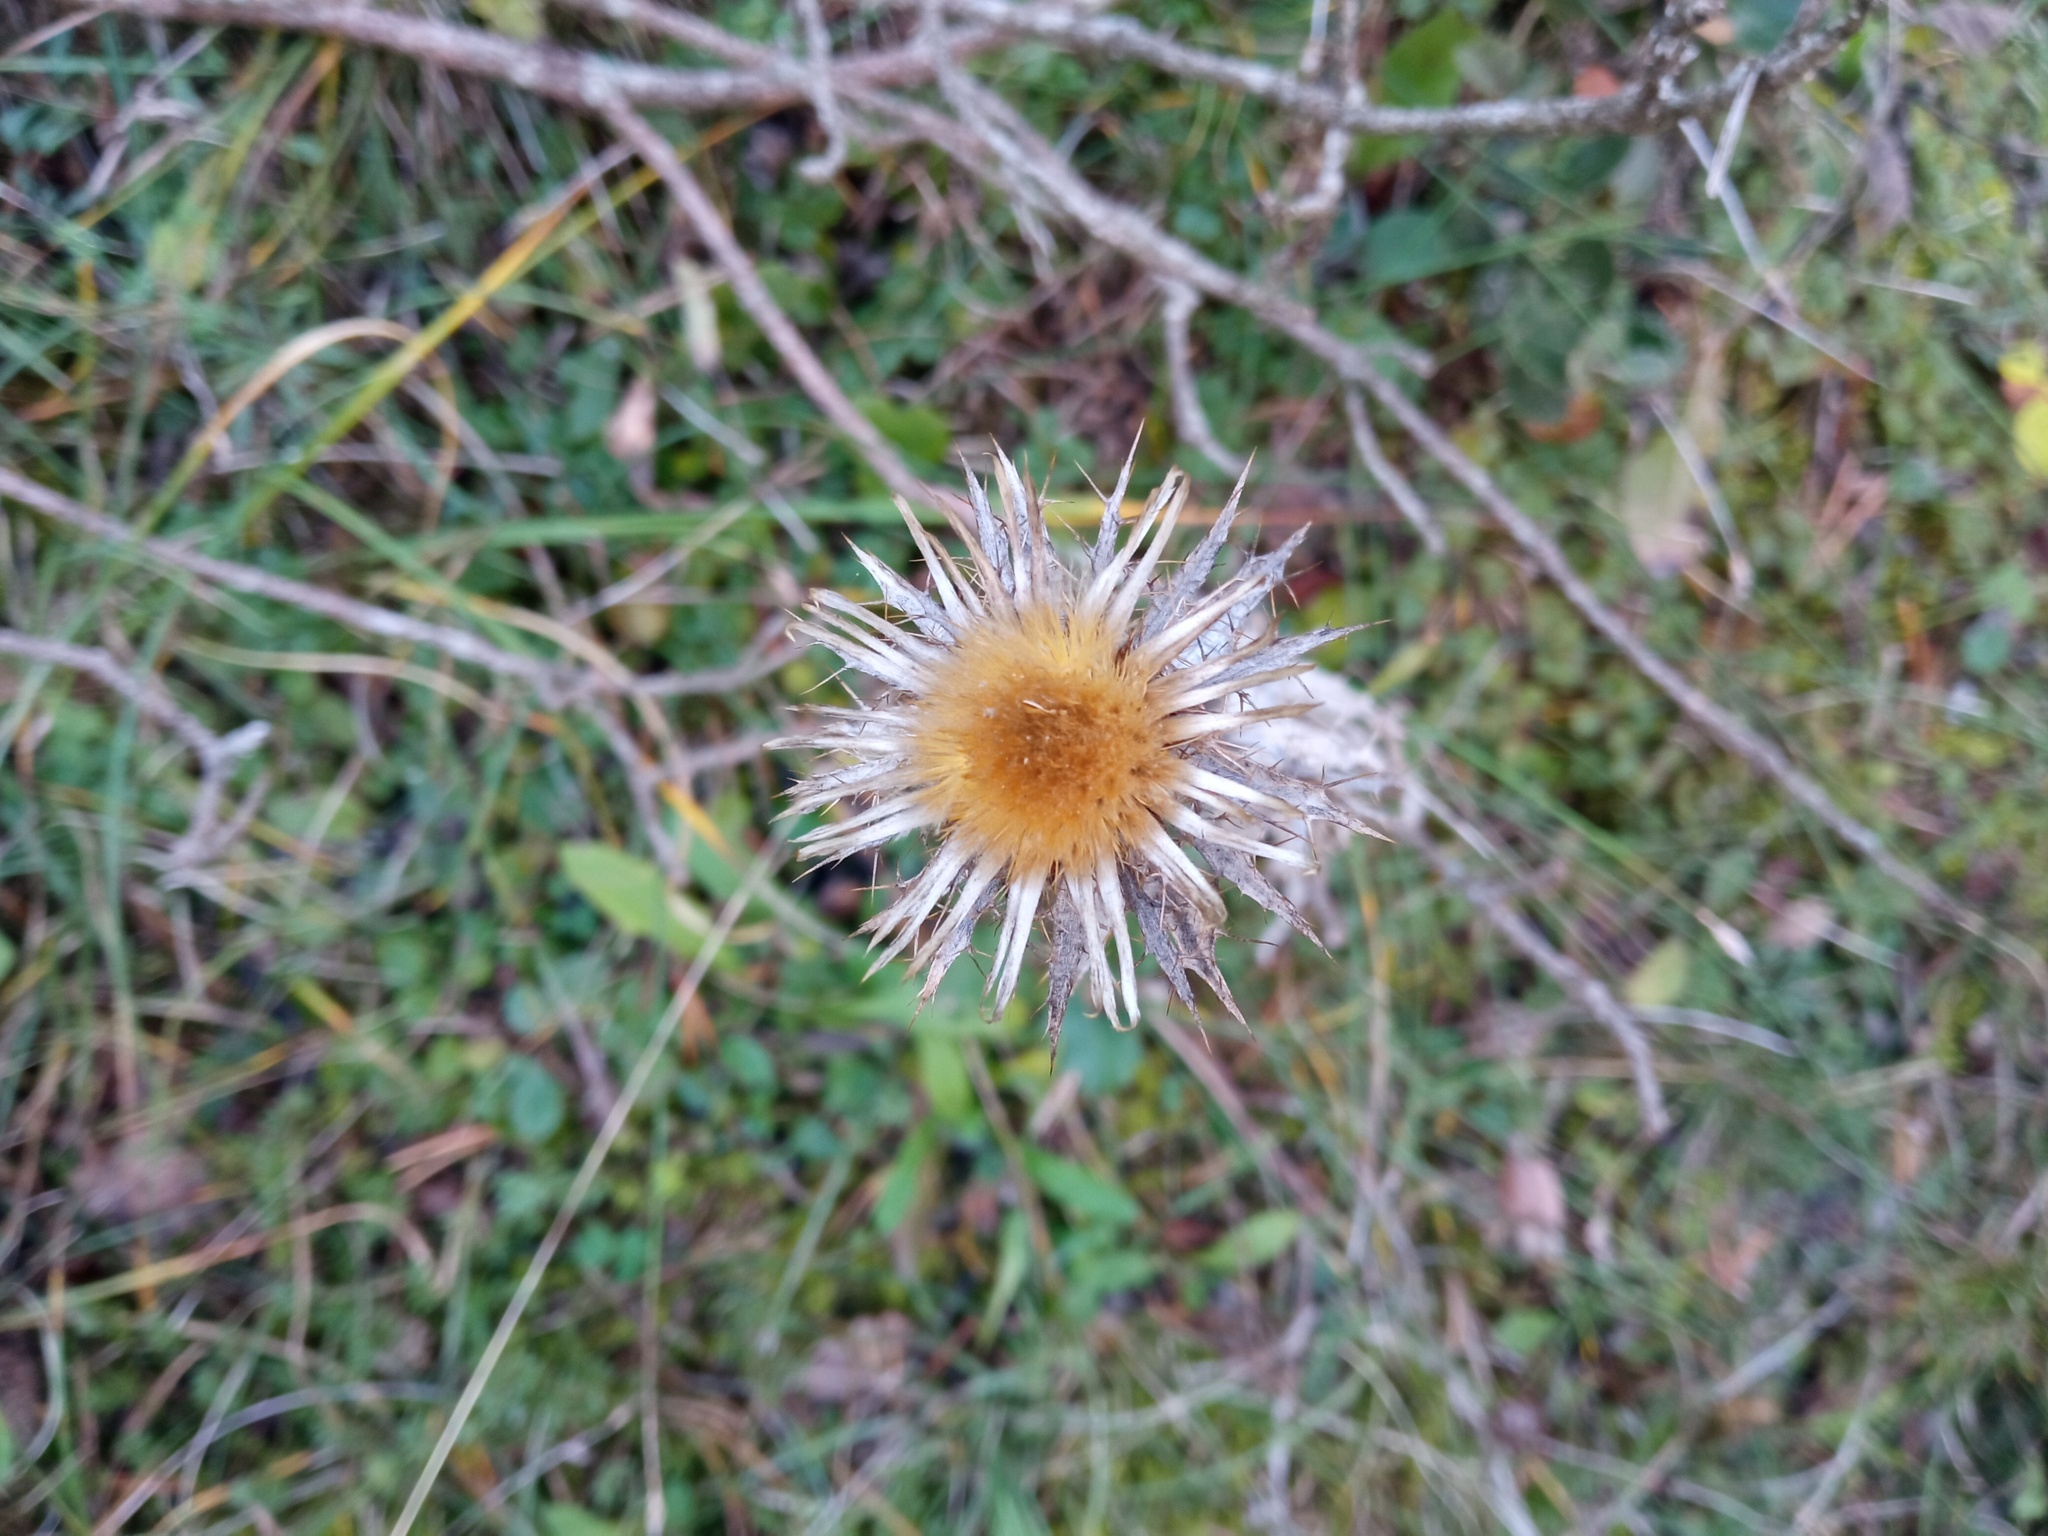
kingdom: Plantae
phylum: Tracheophyta
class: Magnoliopsida
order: Asterales
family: Asteraceae
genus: Carlina
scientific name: Carlina vulgaris
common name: Carline thistle
